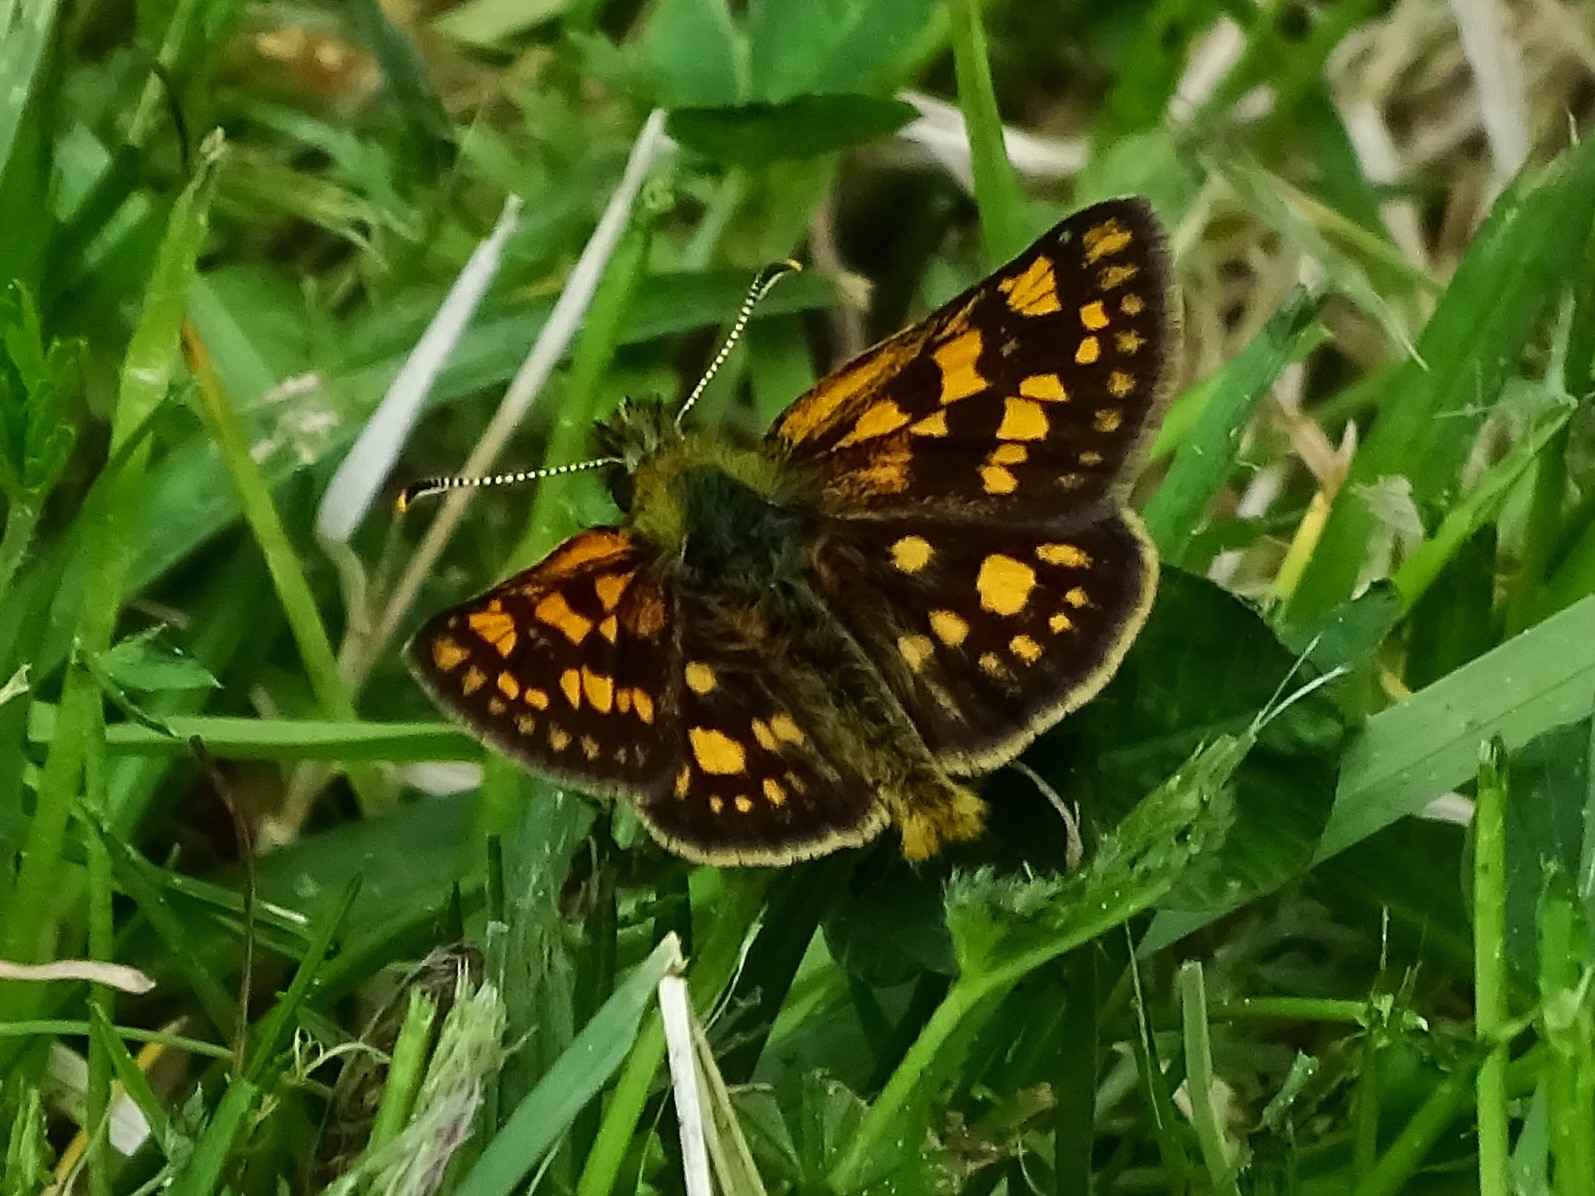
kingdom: Animalia
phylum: Arthropoda
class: Insecta
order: Lepidoptera
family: Hesperiidae
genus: Carterocephalus
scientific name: Carterocephalus palaemon
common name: Chequered skipper
